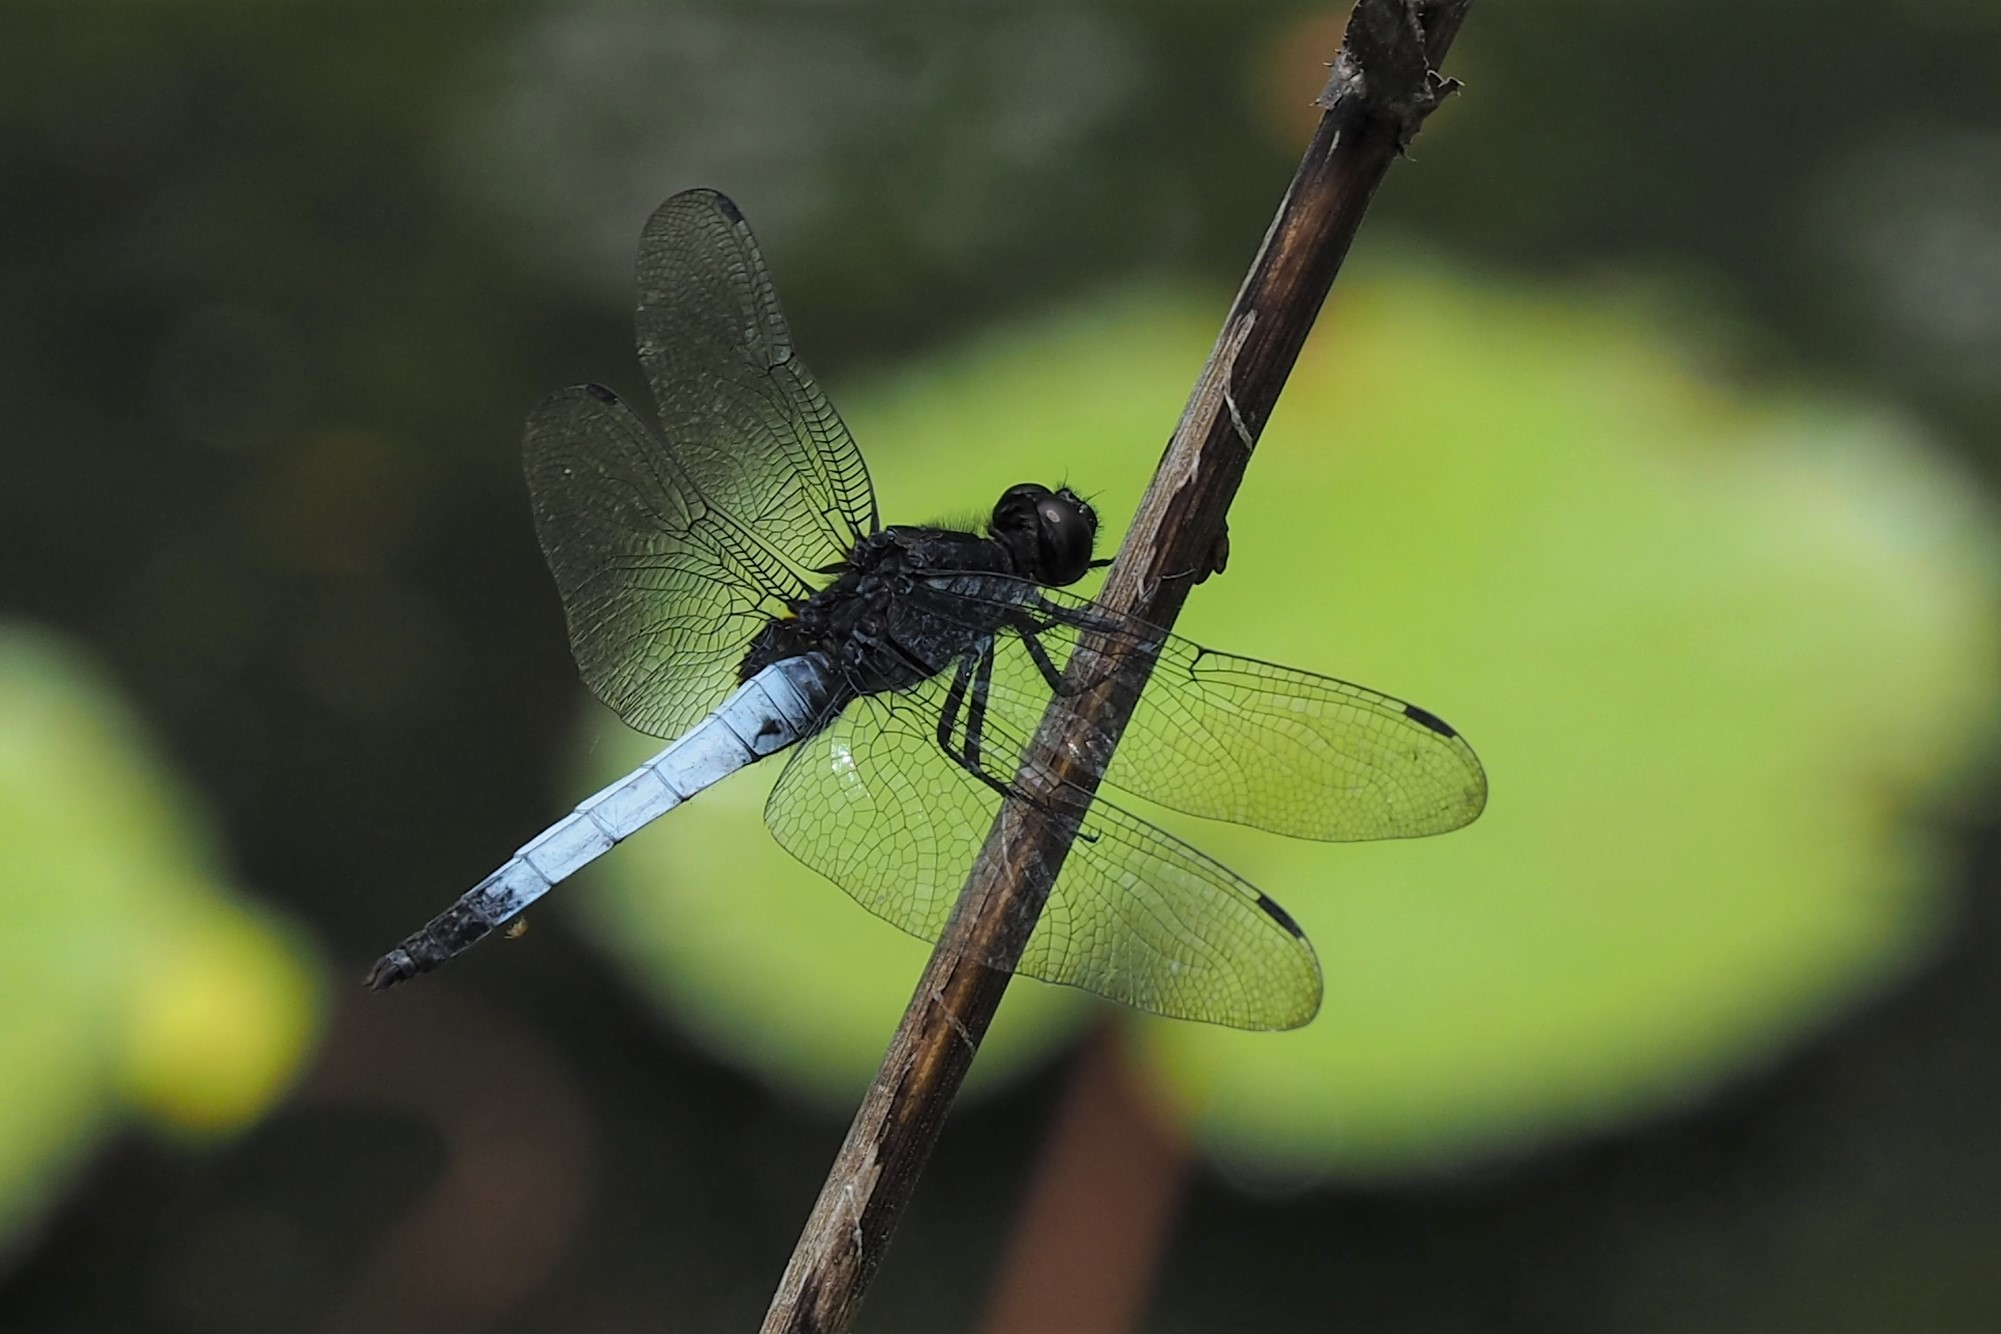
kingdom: Animalia
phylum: Arthropoda
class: Insecta
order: Odonata
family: Libellulidae
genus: Orthetrum
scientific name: Orthetrum triangulare
